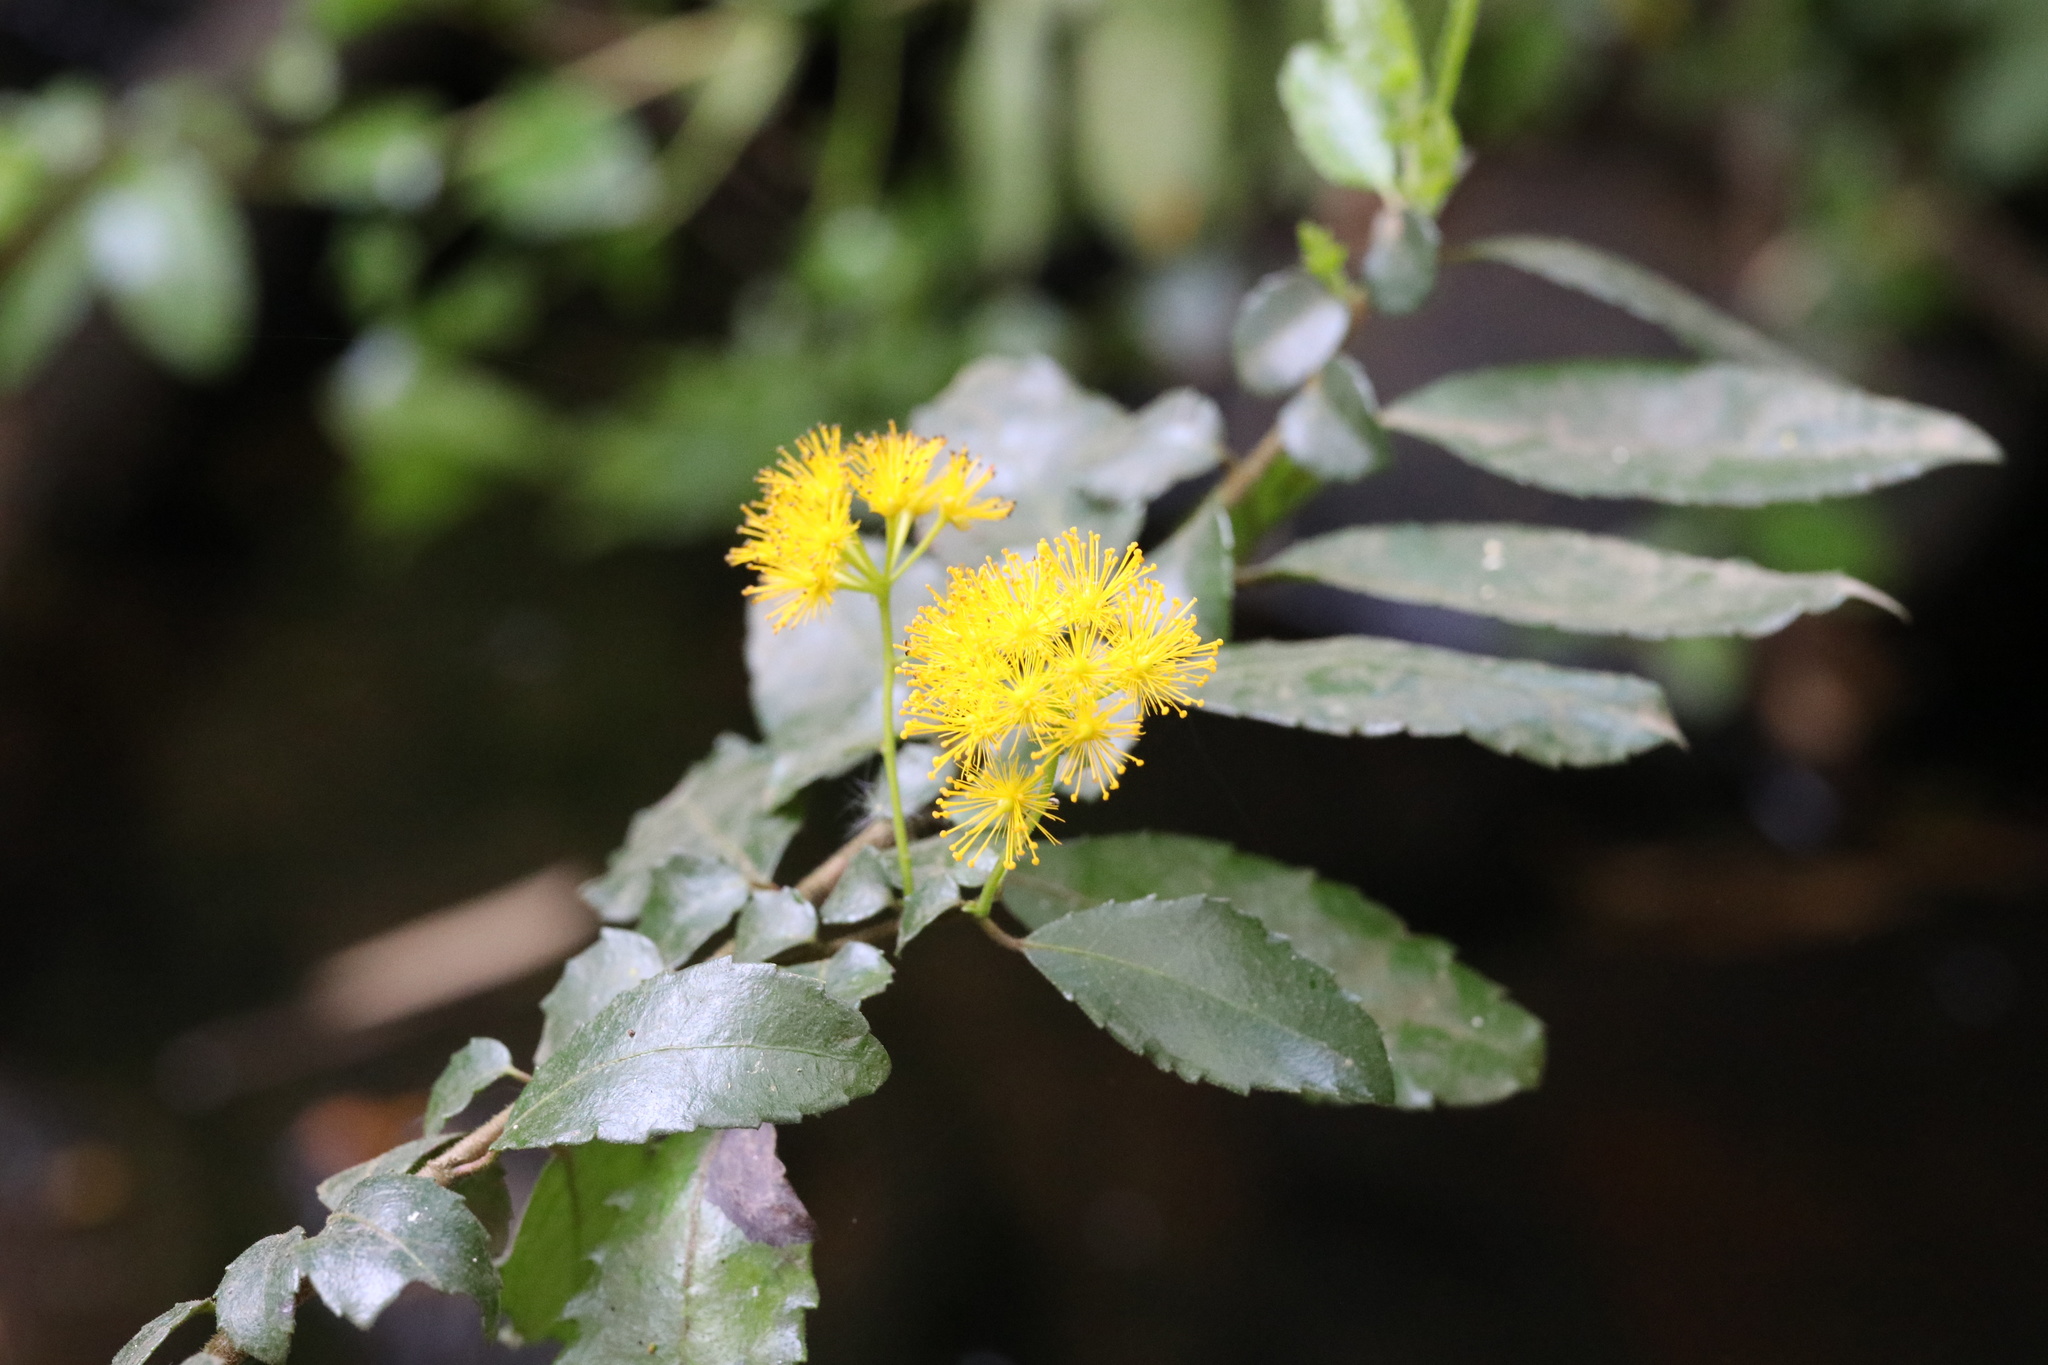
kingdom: Plantae
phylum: Tracheophyta
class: Magnoliopsida
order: Malpighiales
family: Salicaceae
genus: Azara
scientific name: Azara serrata
